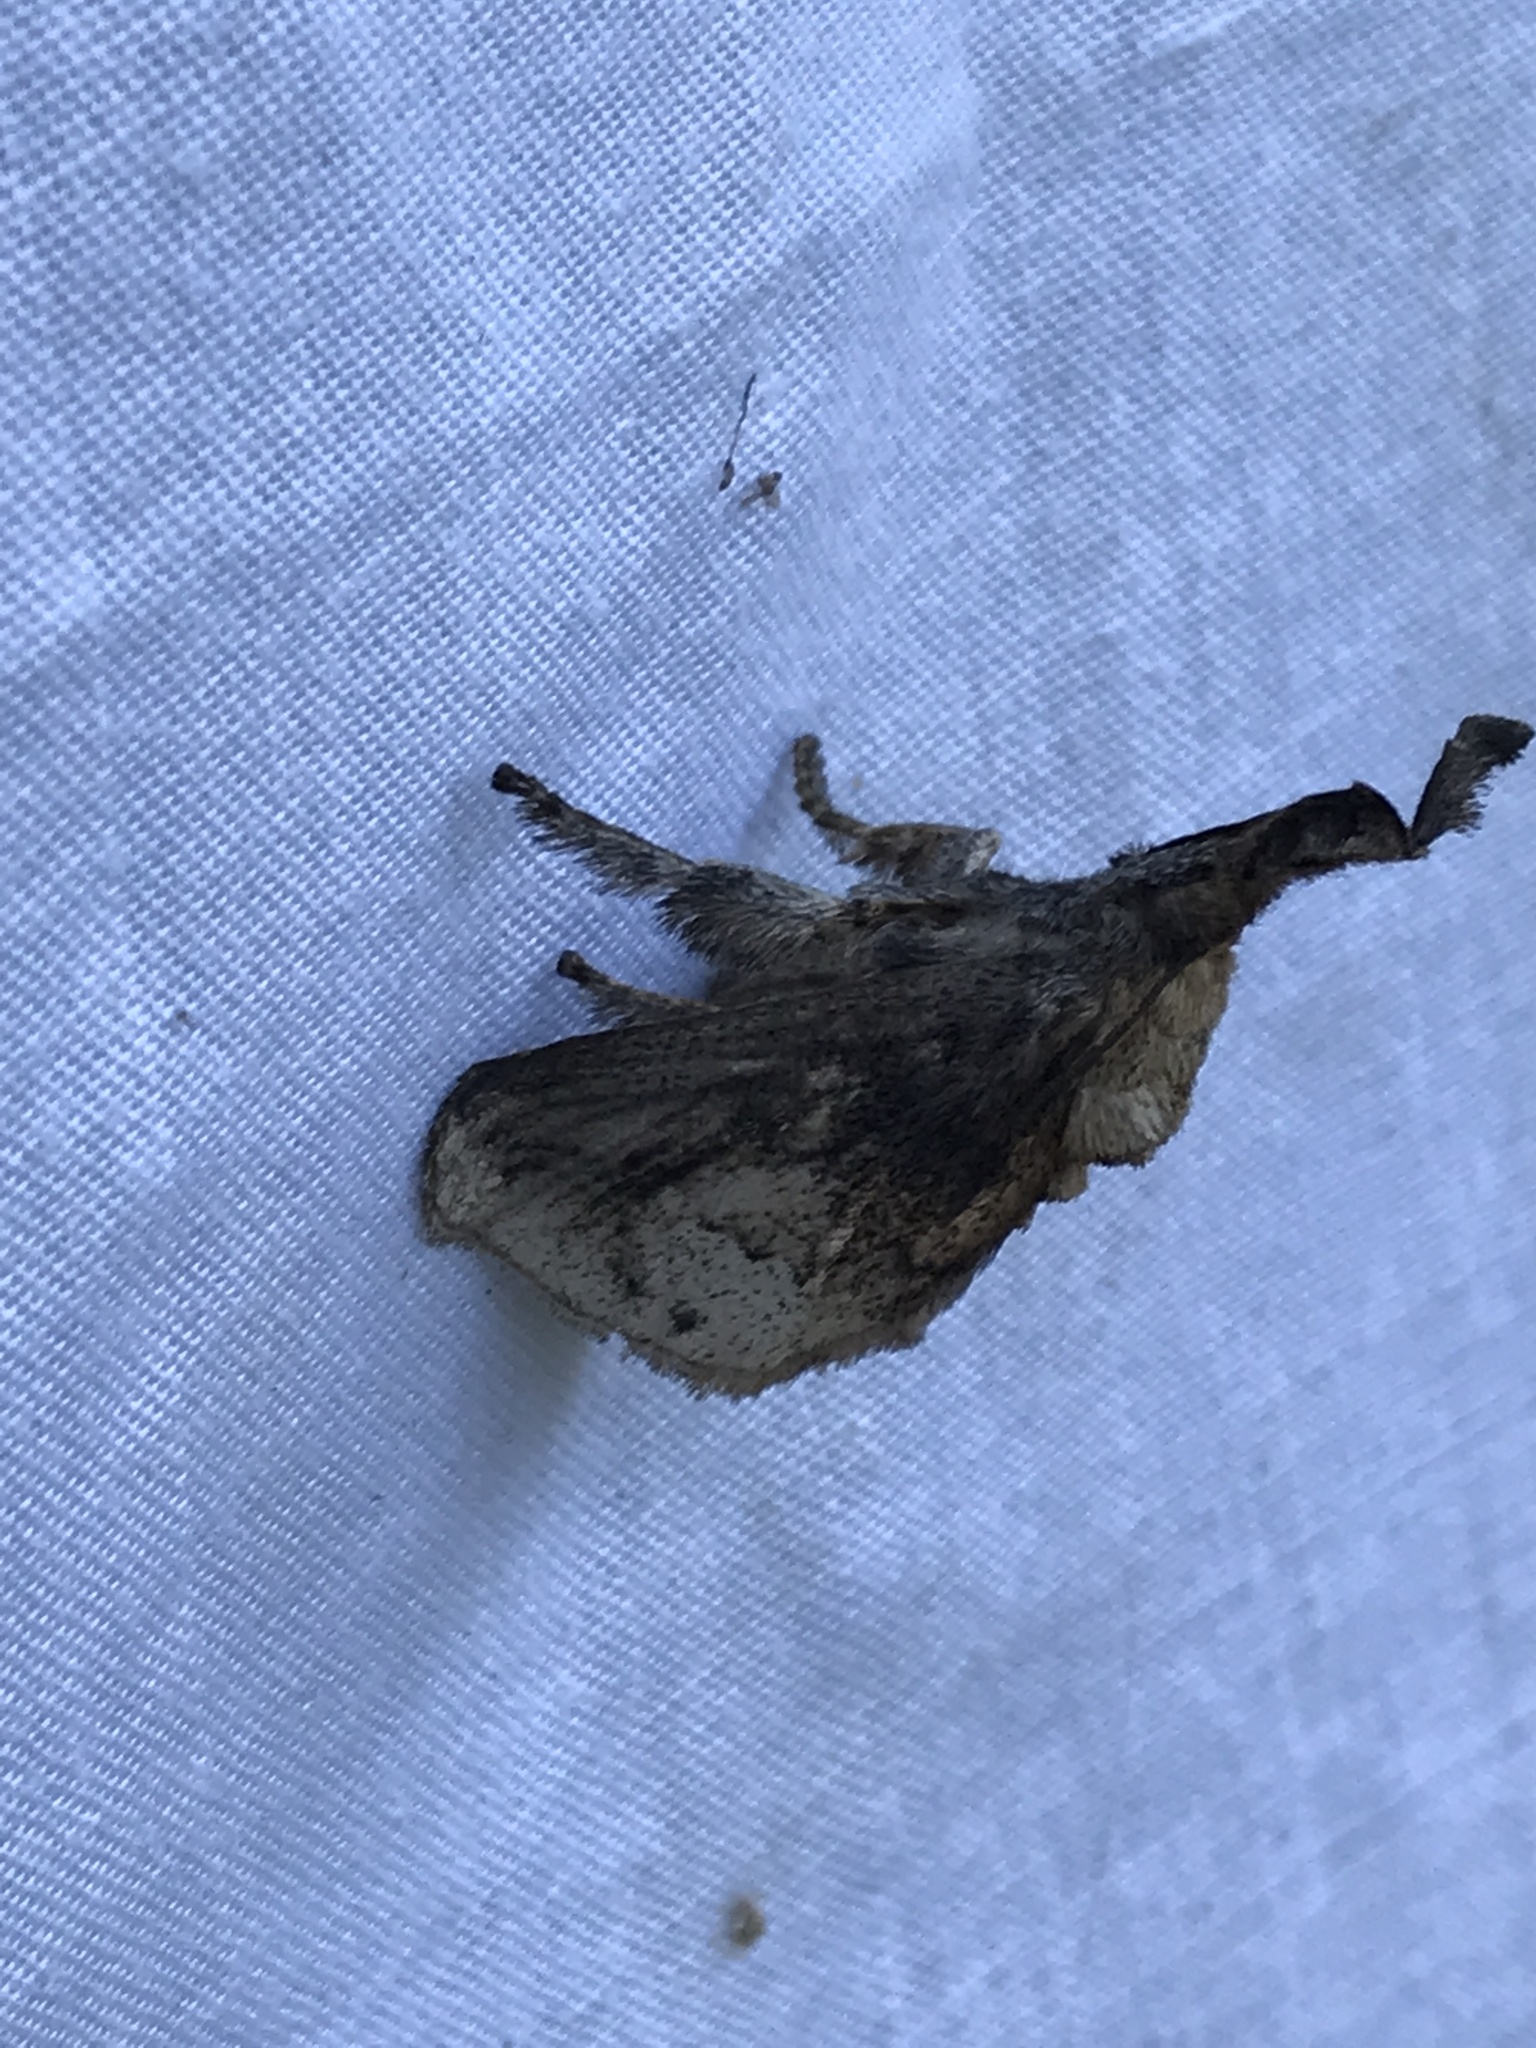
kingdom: Animalia
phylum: Arthropoda
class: Insecta
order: Lepidoptera
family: Limacodidae
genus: Perola
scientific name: Perola nitidissima
